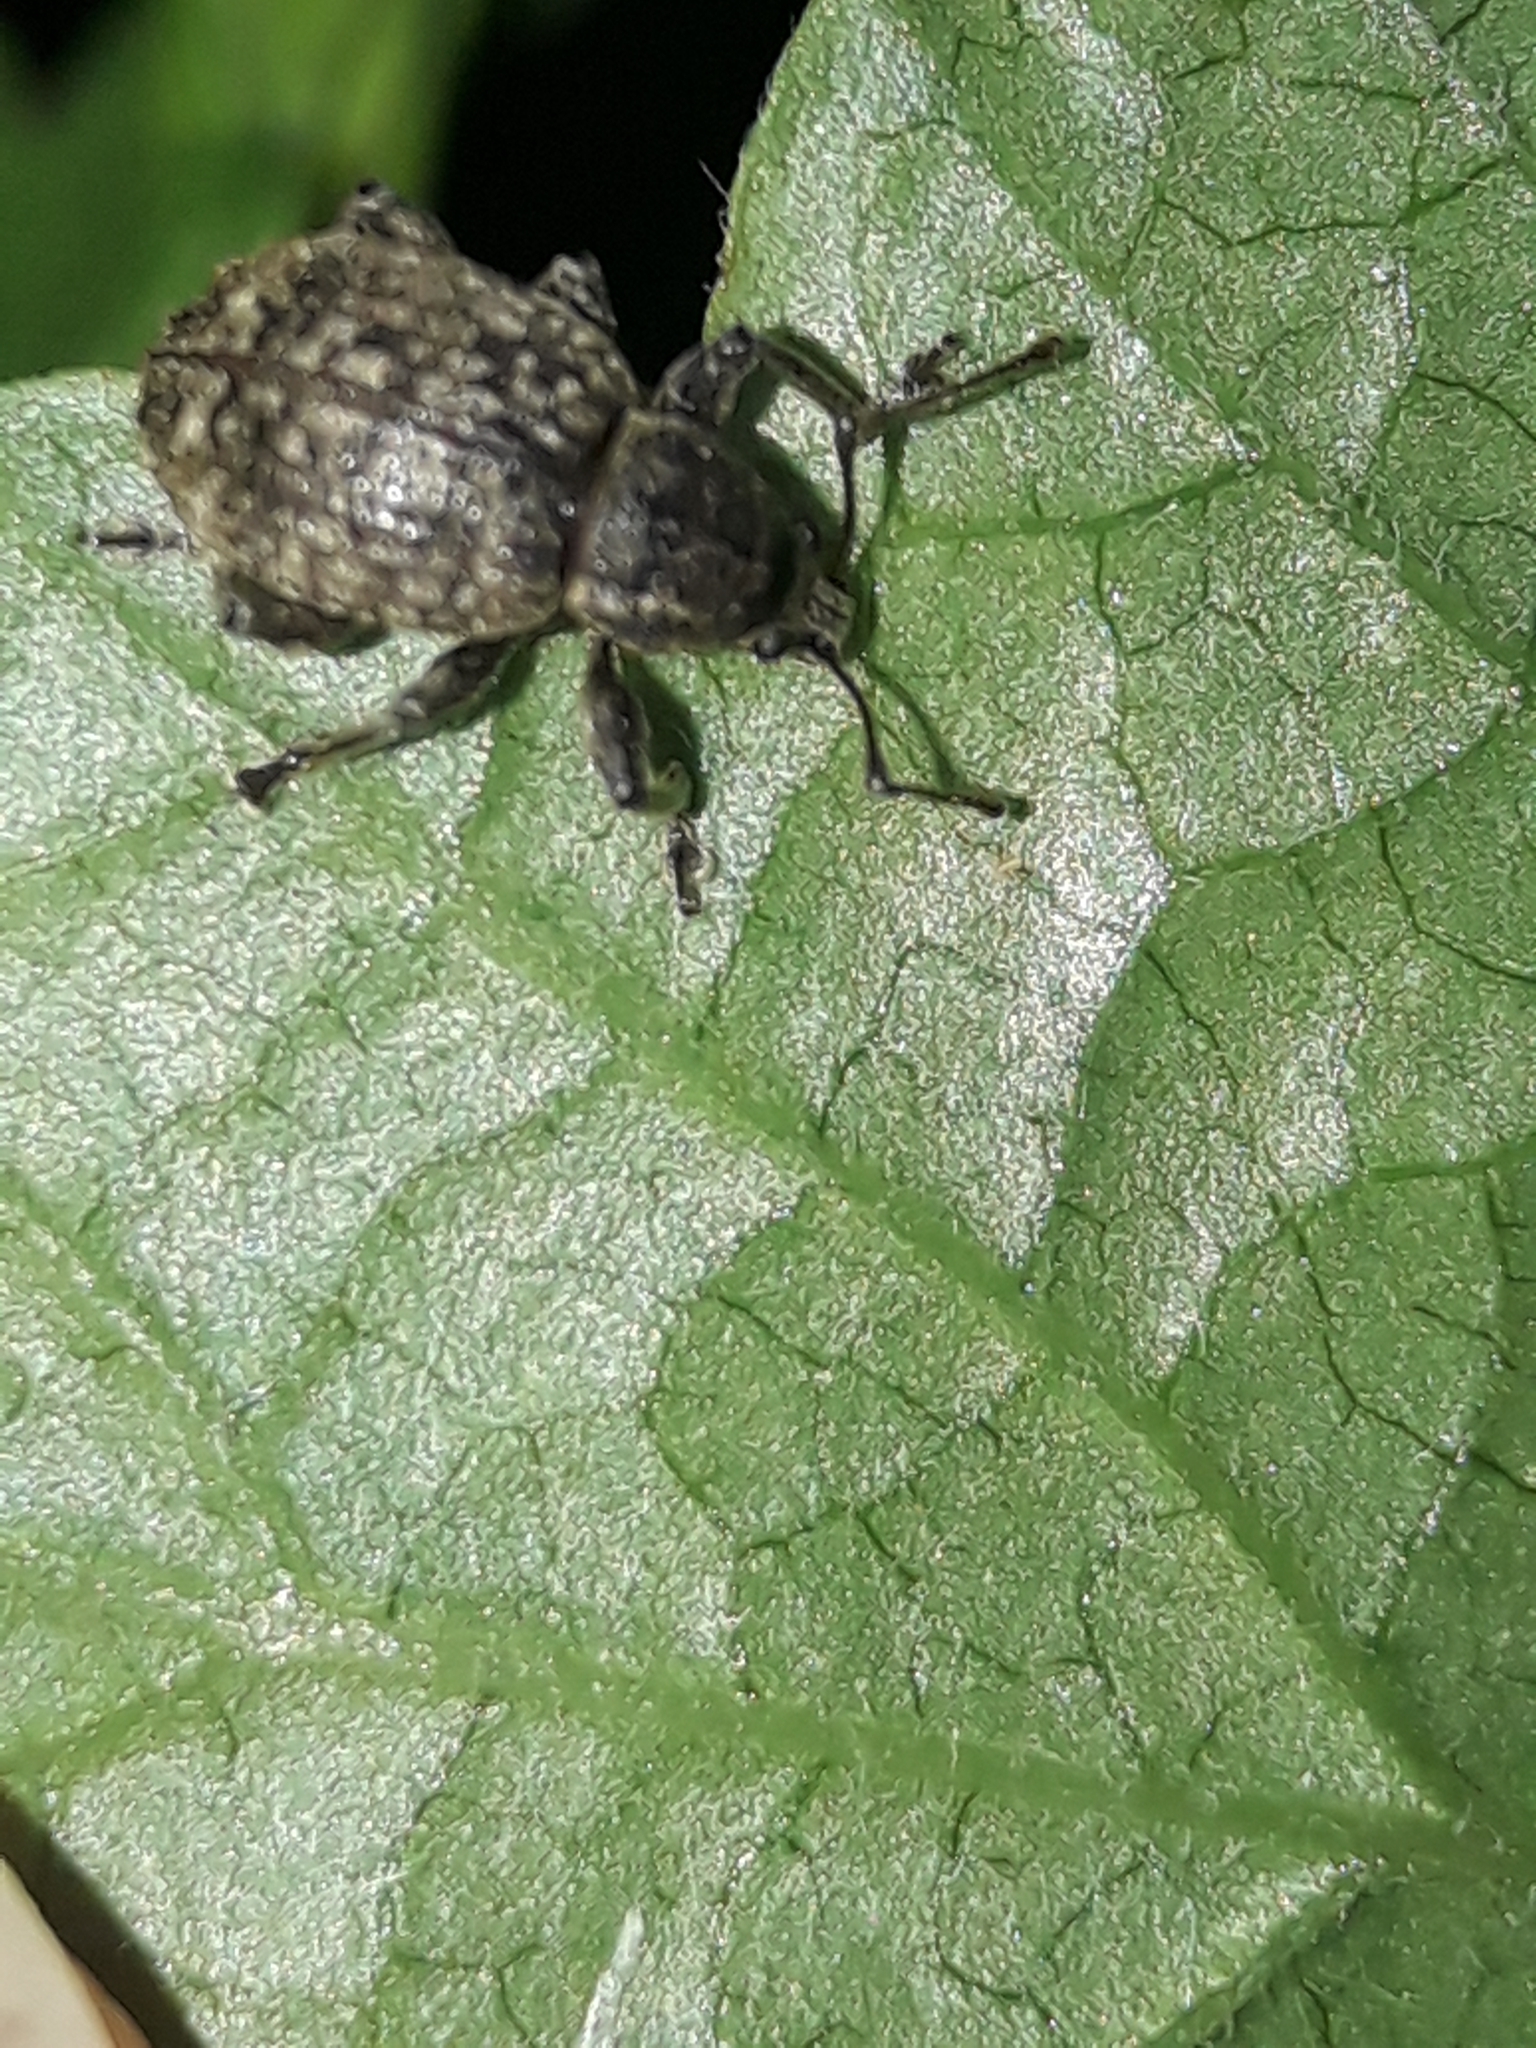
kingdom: Animalia
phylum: Arthropoda
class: Insecta
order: Coleoptera
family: Curculionidae
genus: Phlyctinus
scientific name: Phlyctinus callosus
